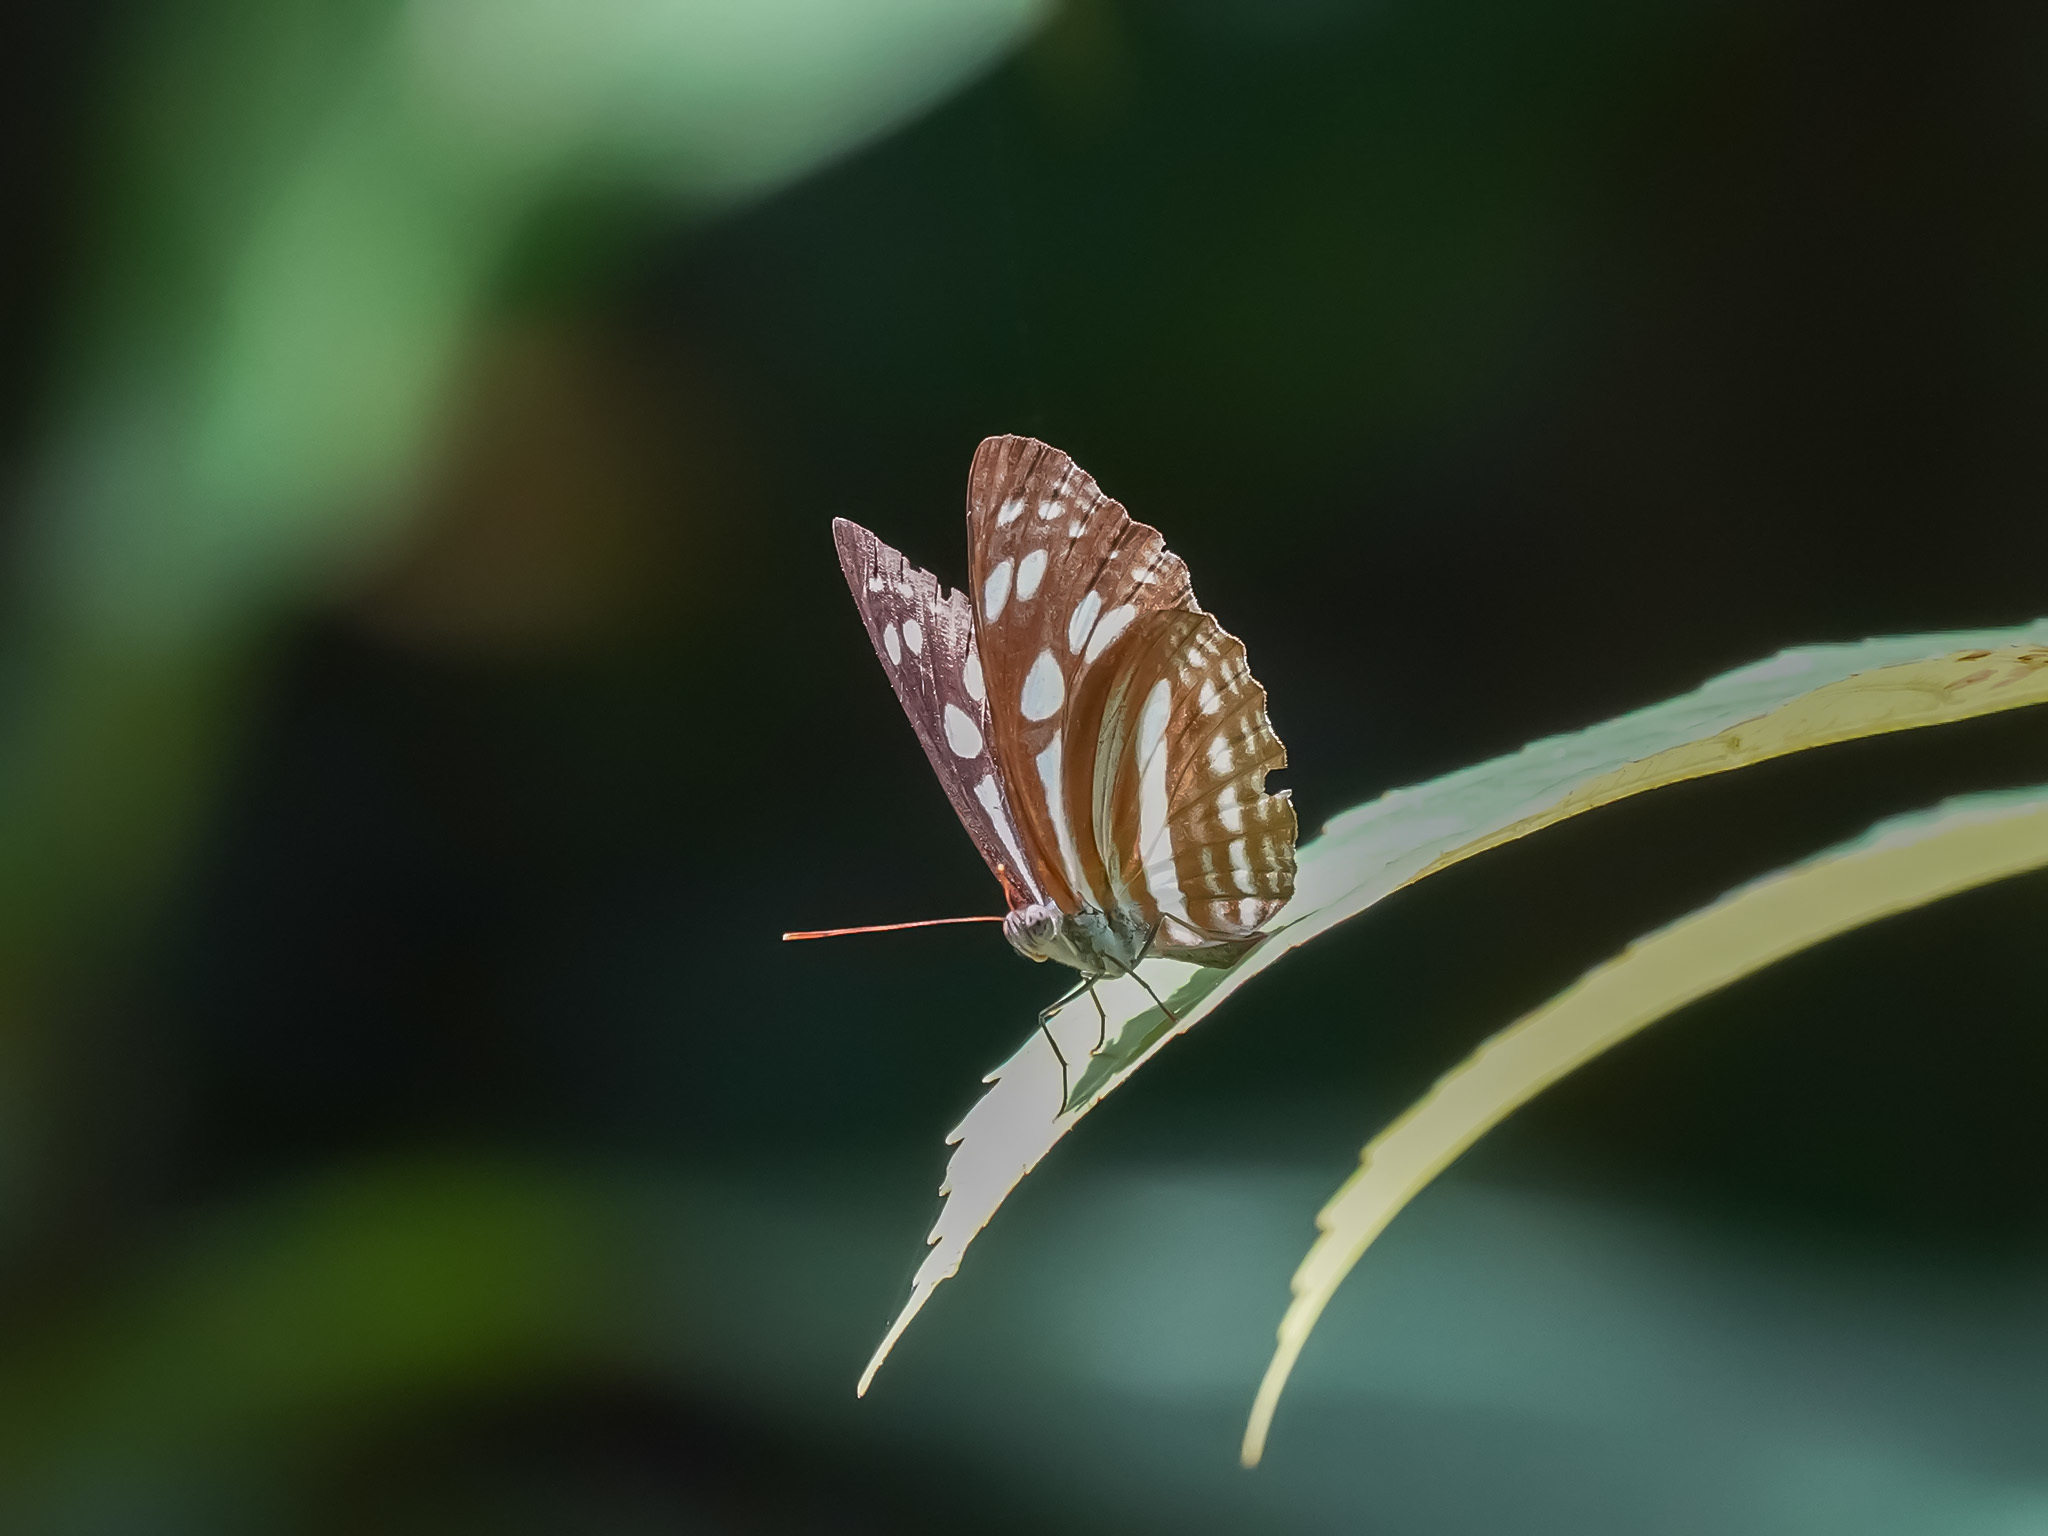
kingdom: Animalia
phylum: Arthropoda
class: Insecta
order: Lepidoptera
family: Nymphalidae
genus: Phaedyma
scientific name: Phaedyma columella
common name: Short banded sailer
